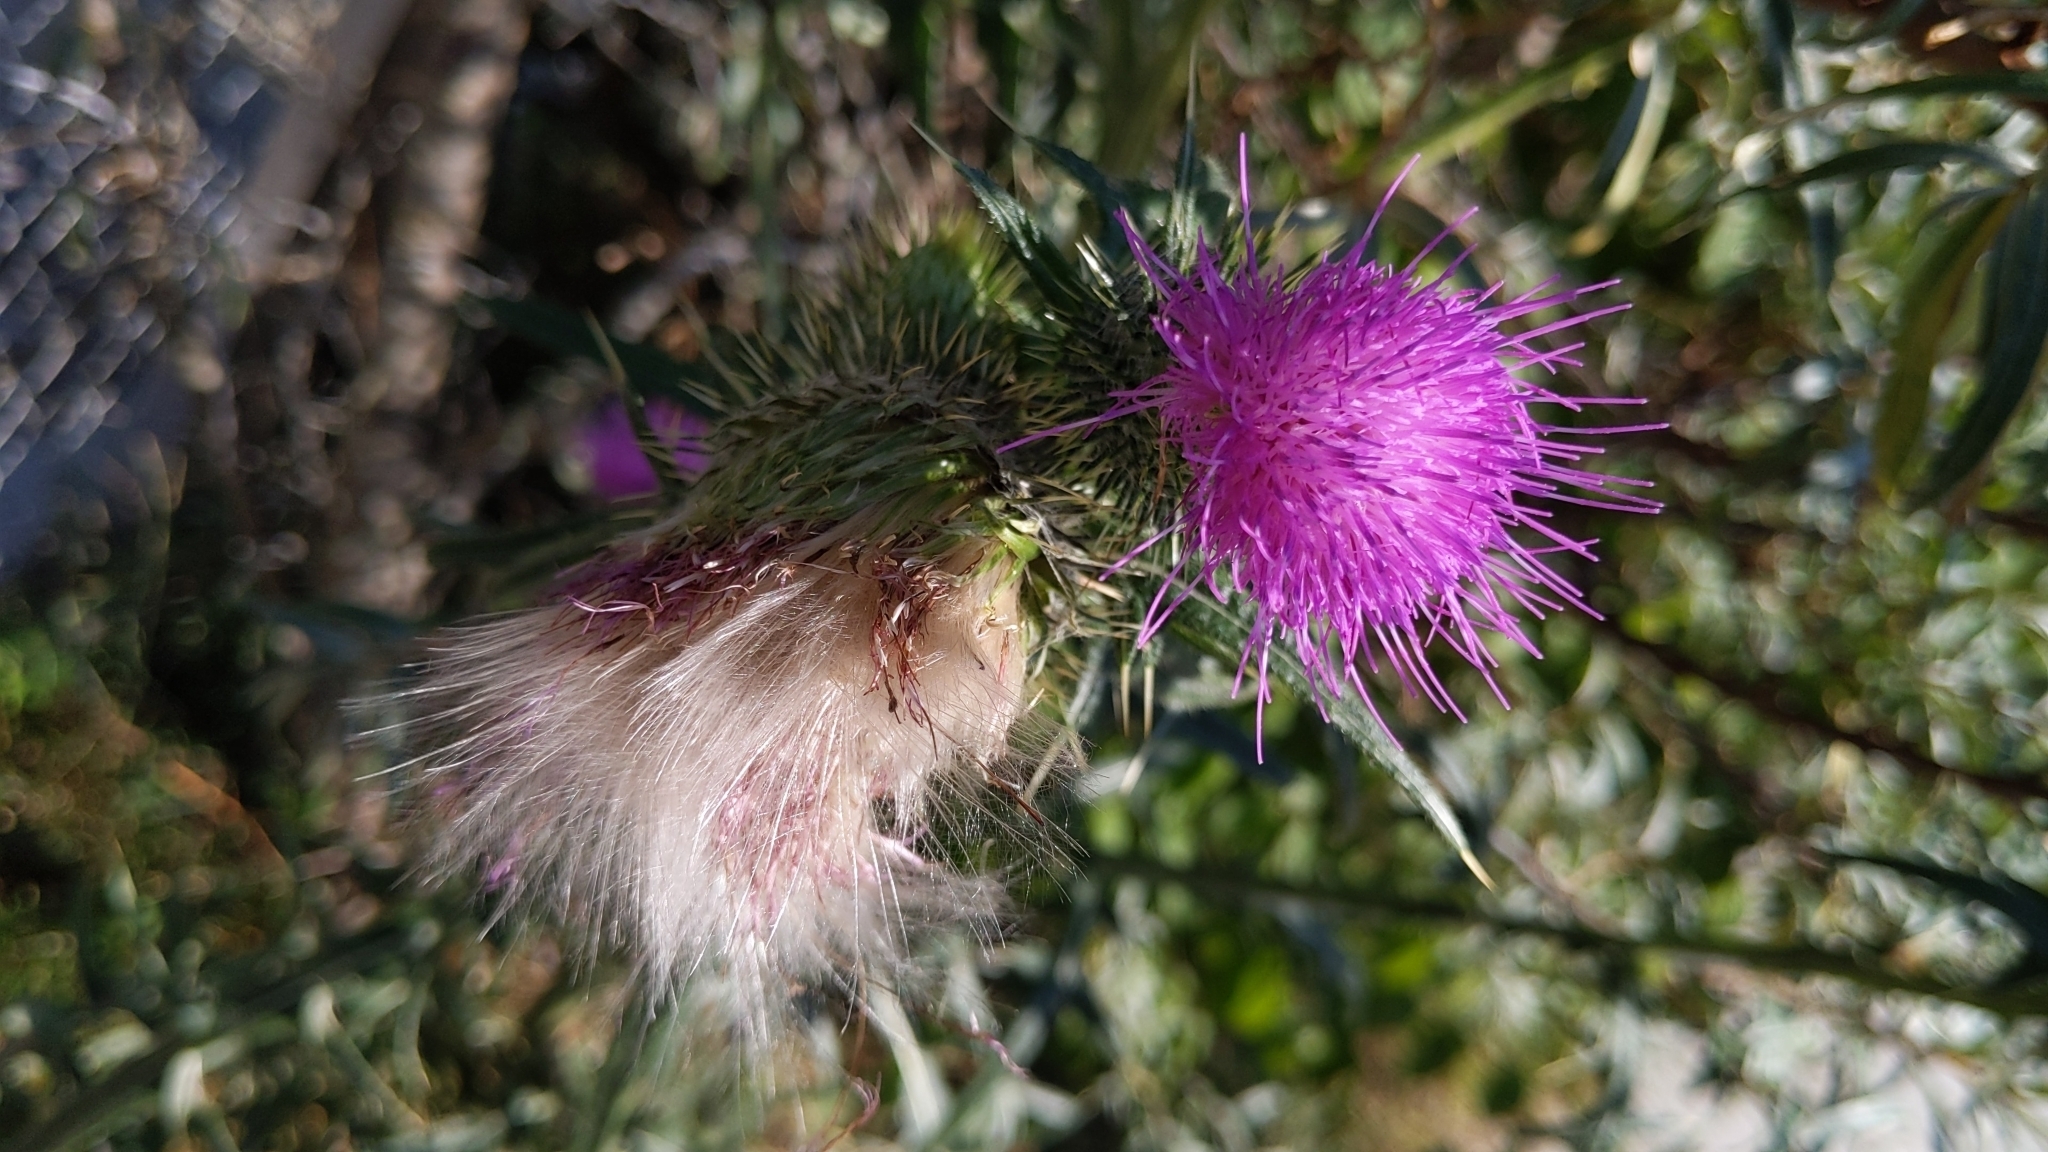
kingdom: Plantae
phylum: Tracheophyta
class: Magnoliopsida
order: Asterales
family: Asteraceae
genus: Cirsium
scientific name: Cirsium vulgare
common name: Bull thistle
